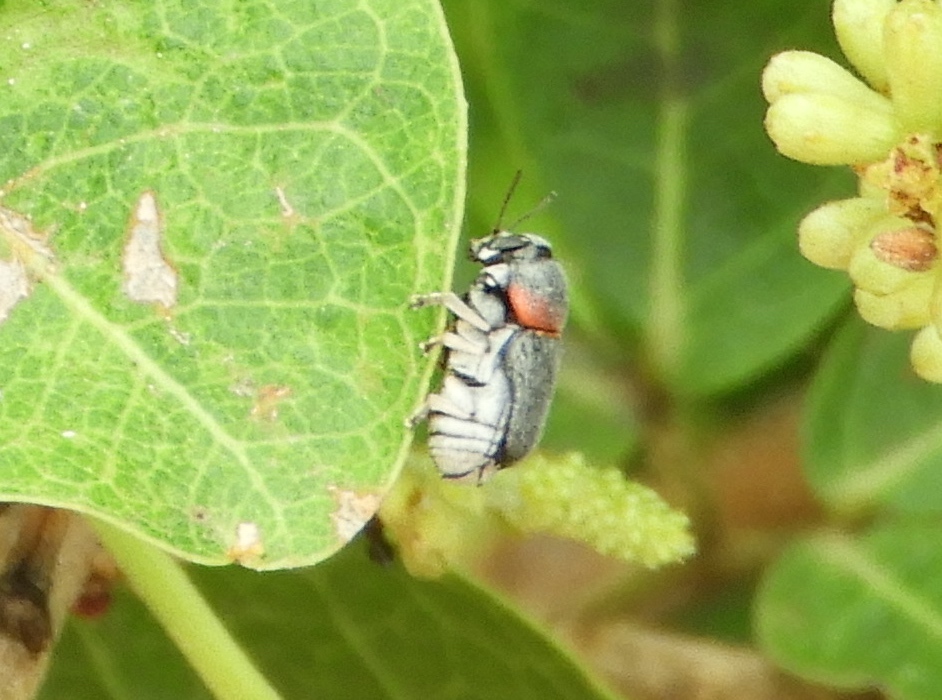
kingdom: Animalia
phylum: Arthropoda
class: Insecta
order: Coleoptera
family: Chrysomelidae
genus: Pachybrachis
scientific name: Pachybrachis thoracicus
